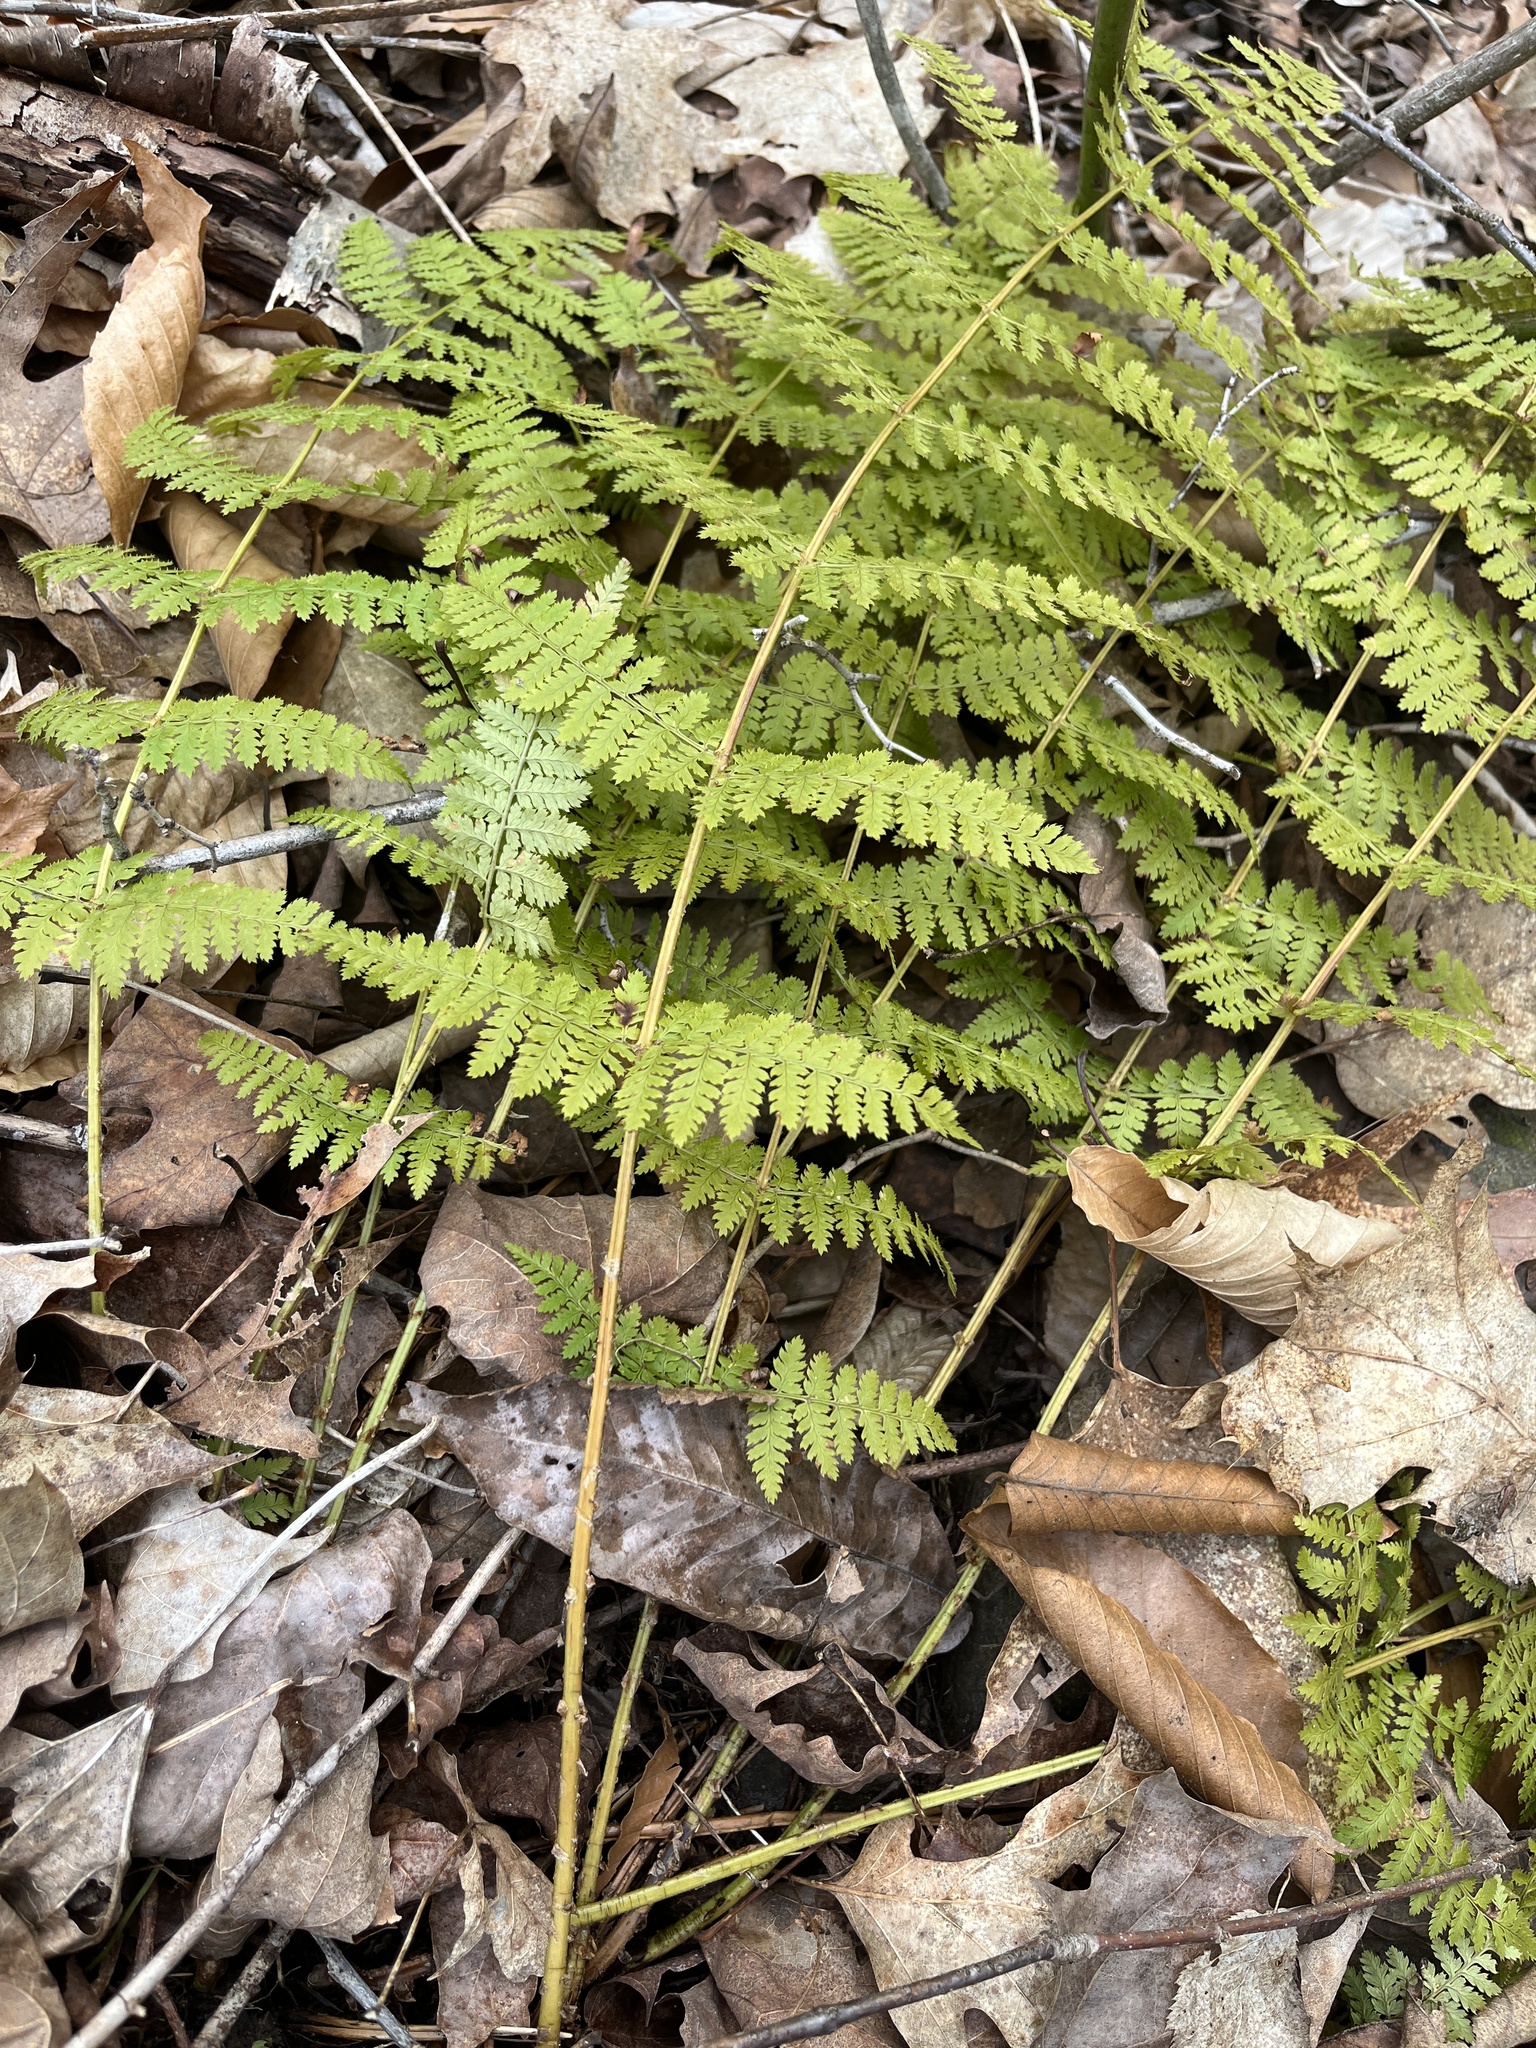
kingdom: Plantae
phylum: Tracheophyta
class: Polypodiopsida
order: Polypodiales
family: Dryopteridaceae
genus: Dryopteris
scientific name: Dryopteris intermedia
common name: Evergreen wood fern
